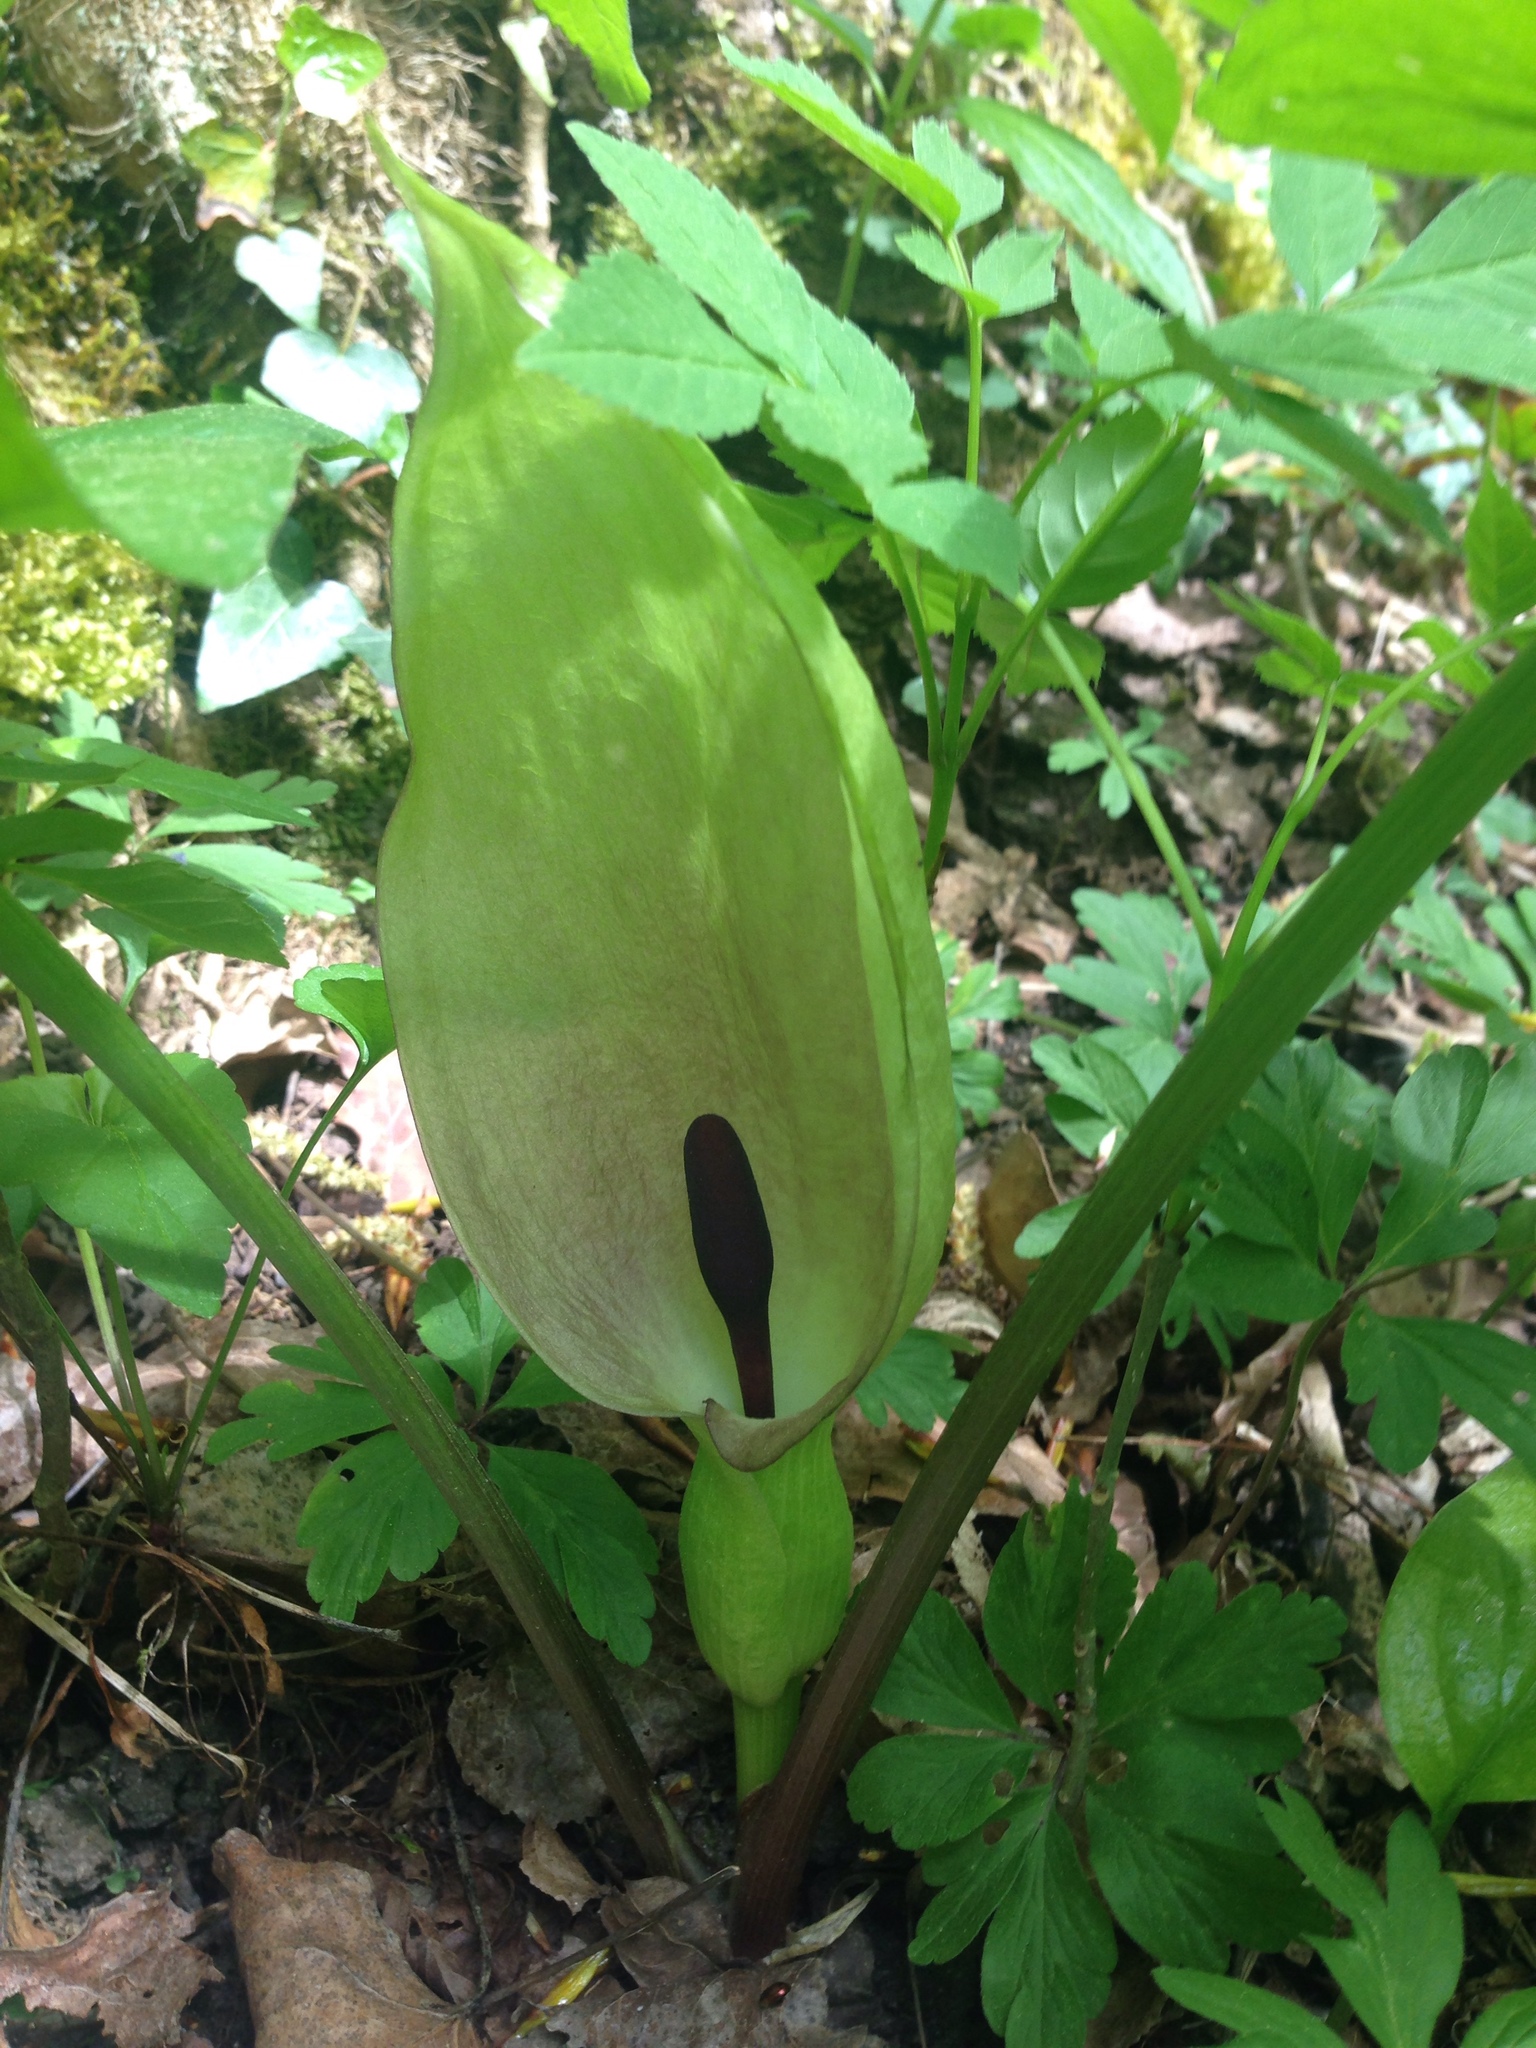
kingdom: Plantae
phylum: Tracheophyta
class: Liliopsida
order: Alismatales
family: Araceae
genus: Arum
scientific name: Arum maculatum
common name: Lords-and-ladies
